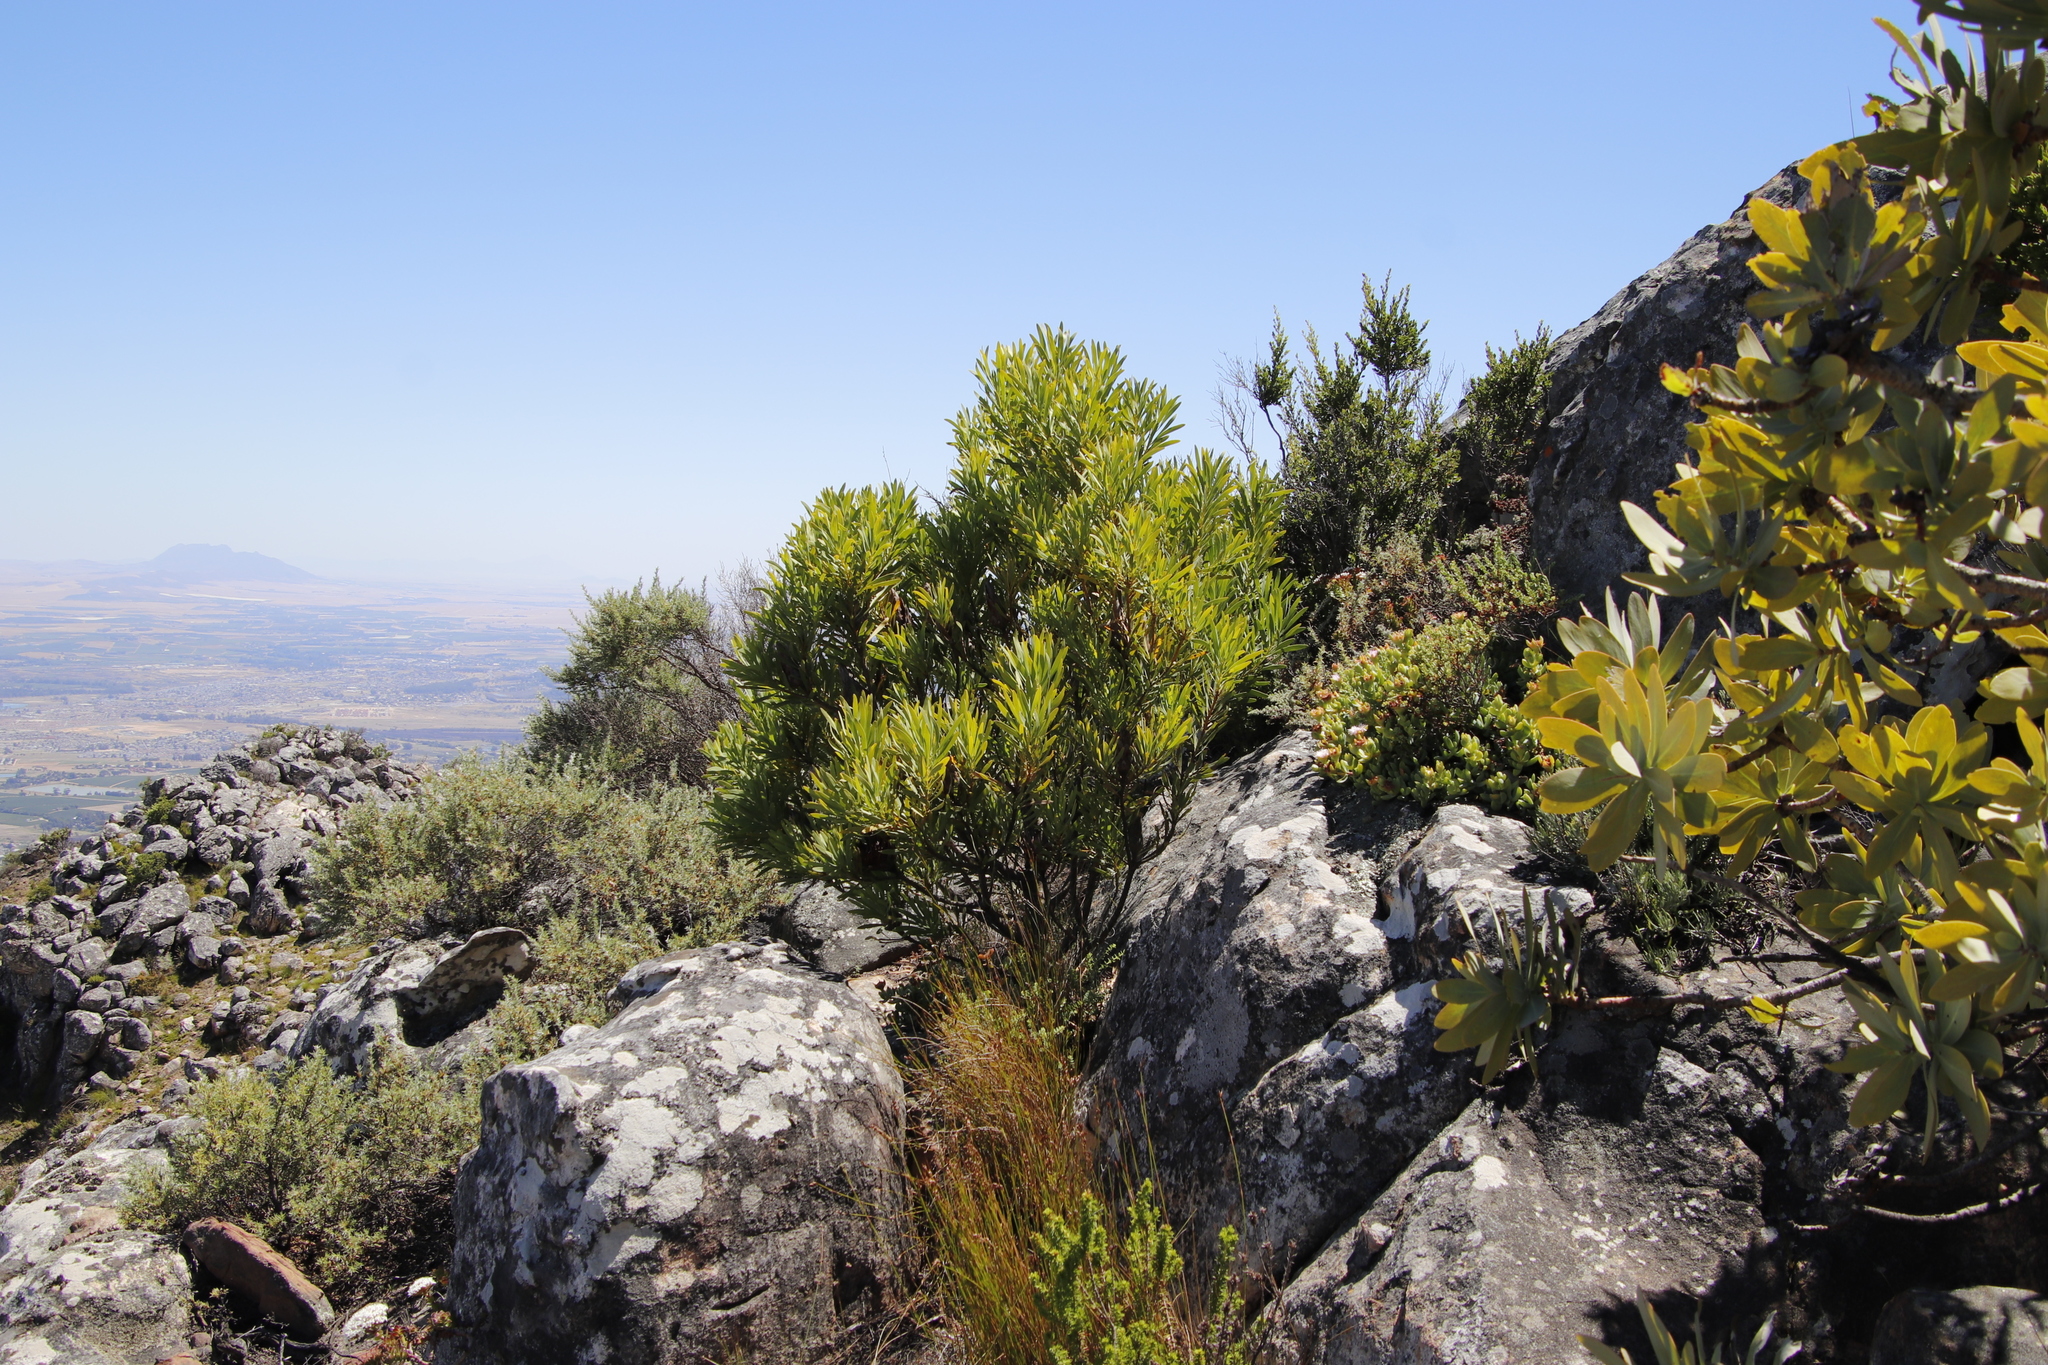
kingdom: Plantae
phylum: Tracheophyta
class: Magnoliopsida
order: Proteales
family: Proteaceae
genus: Protea
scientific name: Protea repens
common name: Sugarbush
